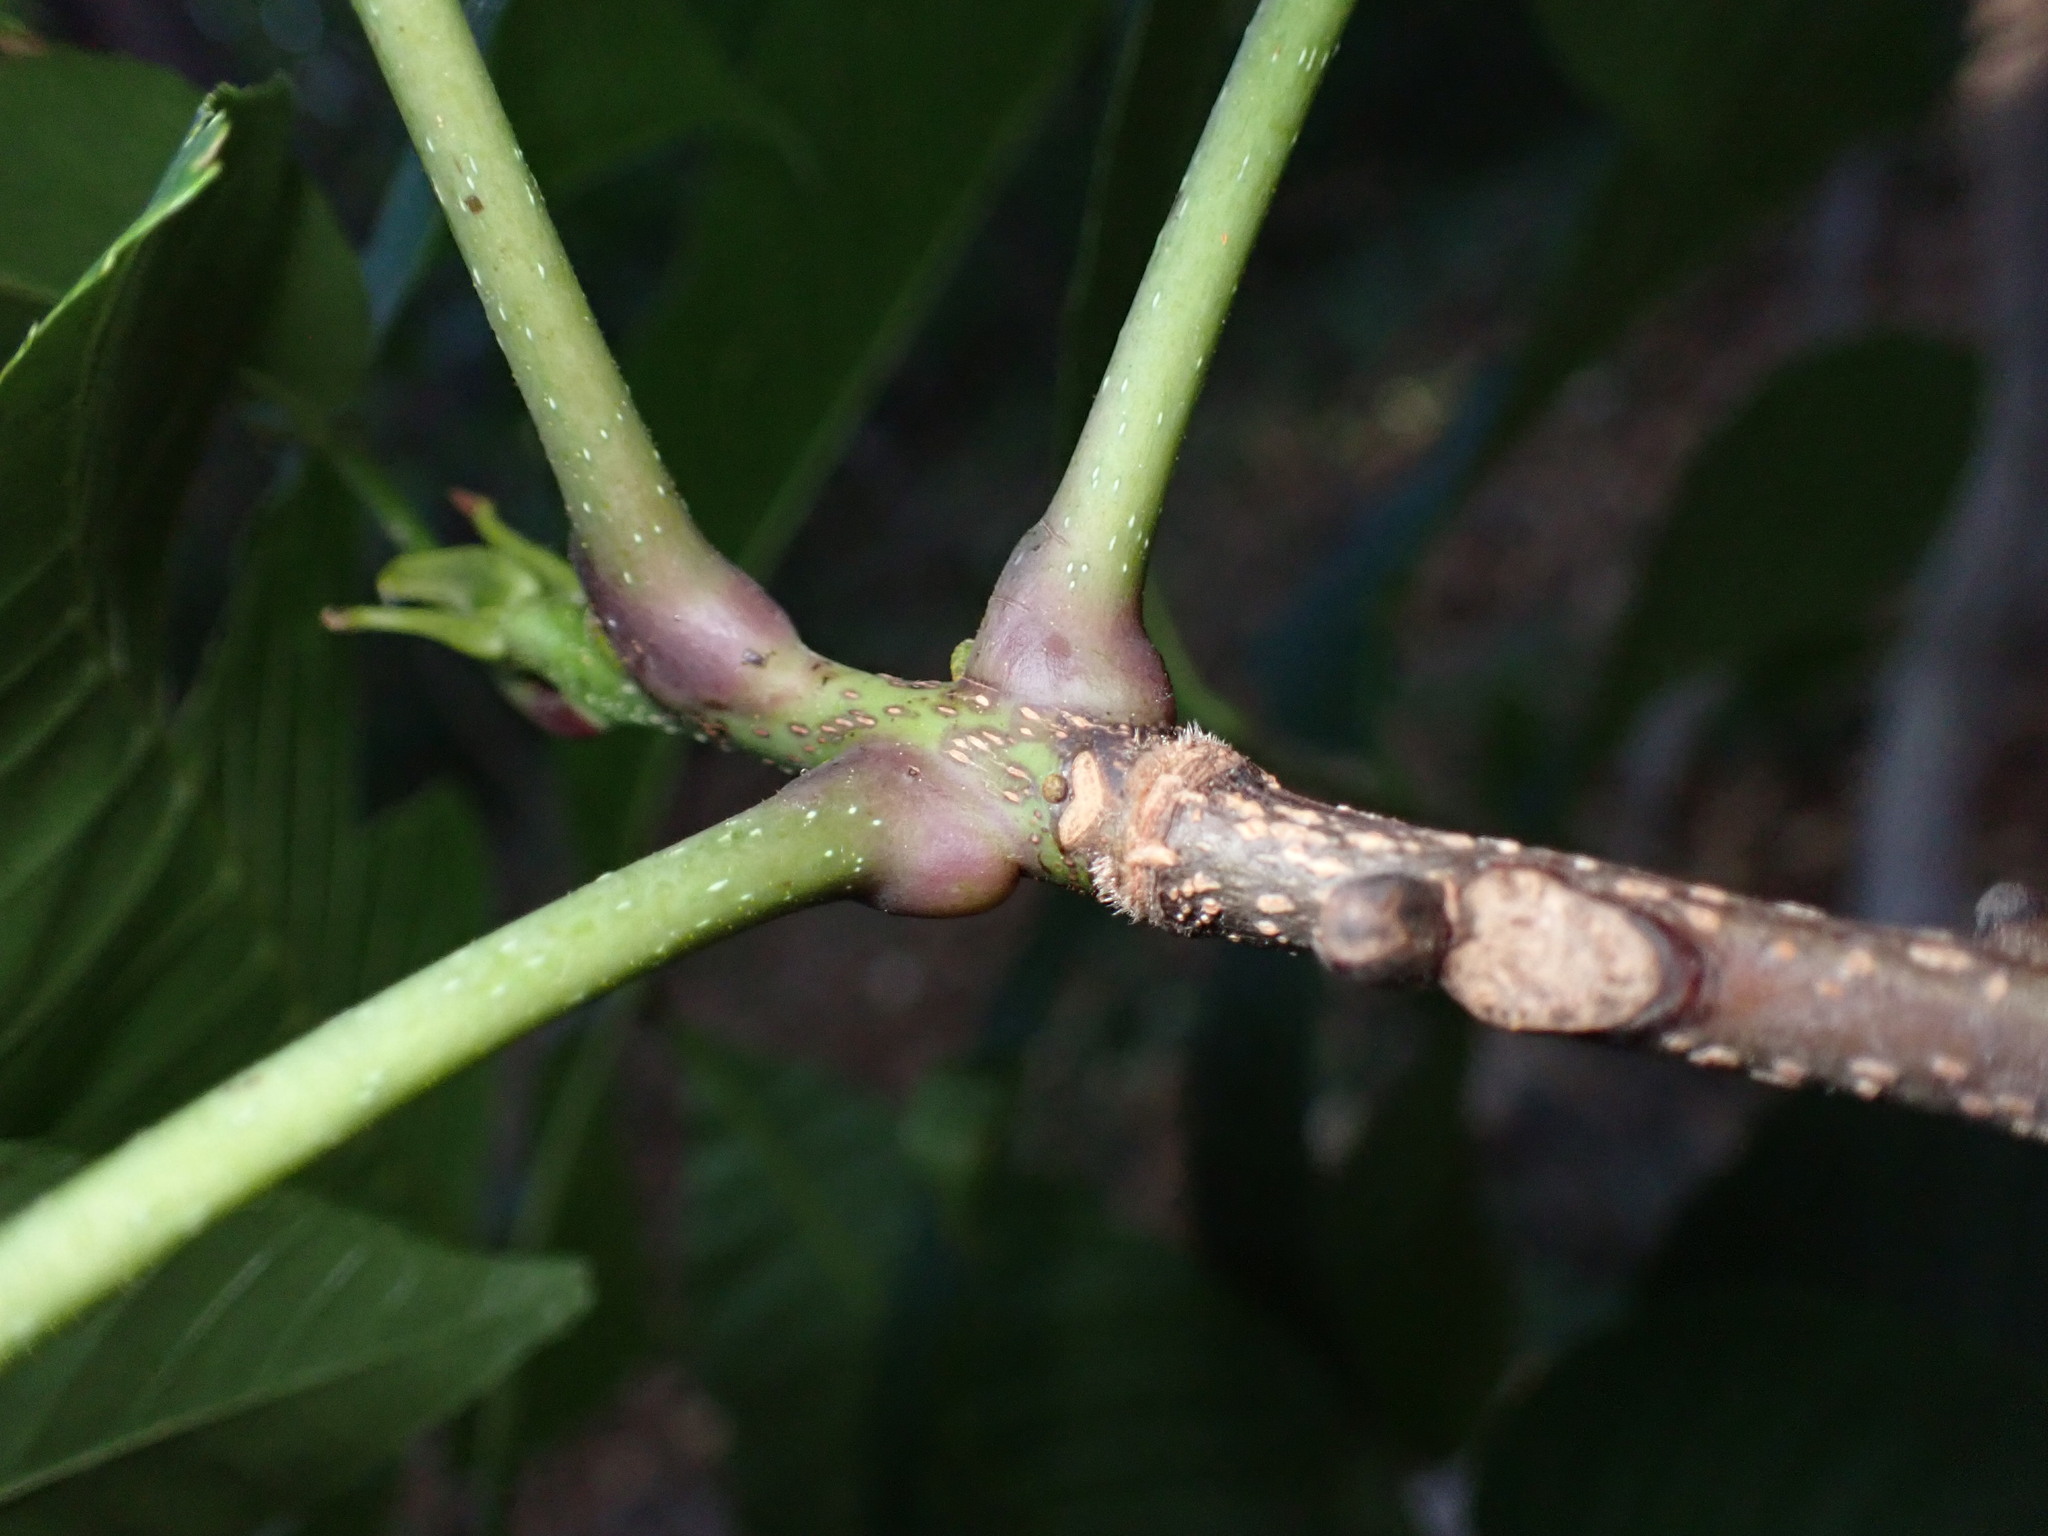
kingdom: Plantae
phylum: Tracheophyta
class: Magnoliopsida
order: Fagales
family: Juglandaceae
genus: Carya
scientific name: Carya ovalis
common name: False shagbark
